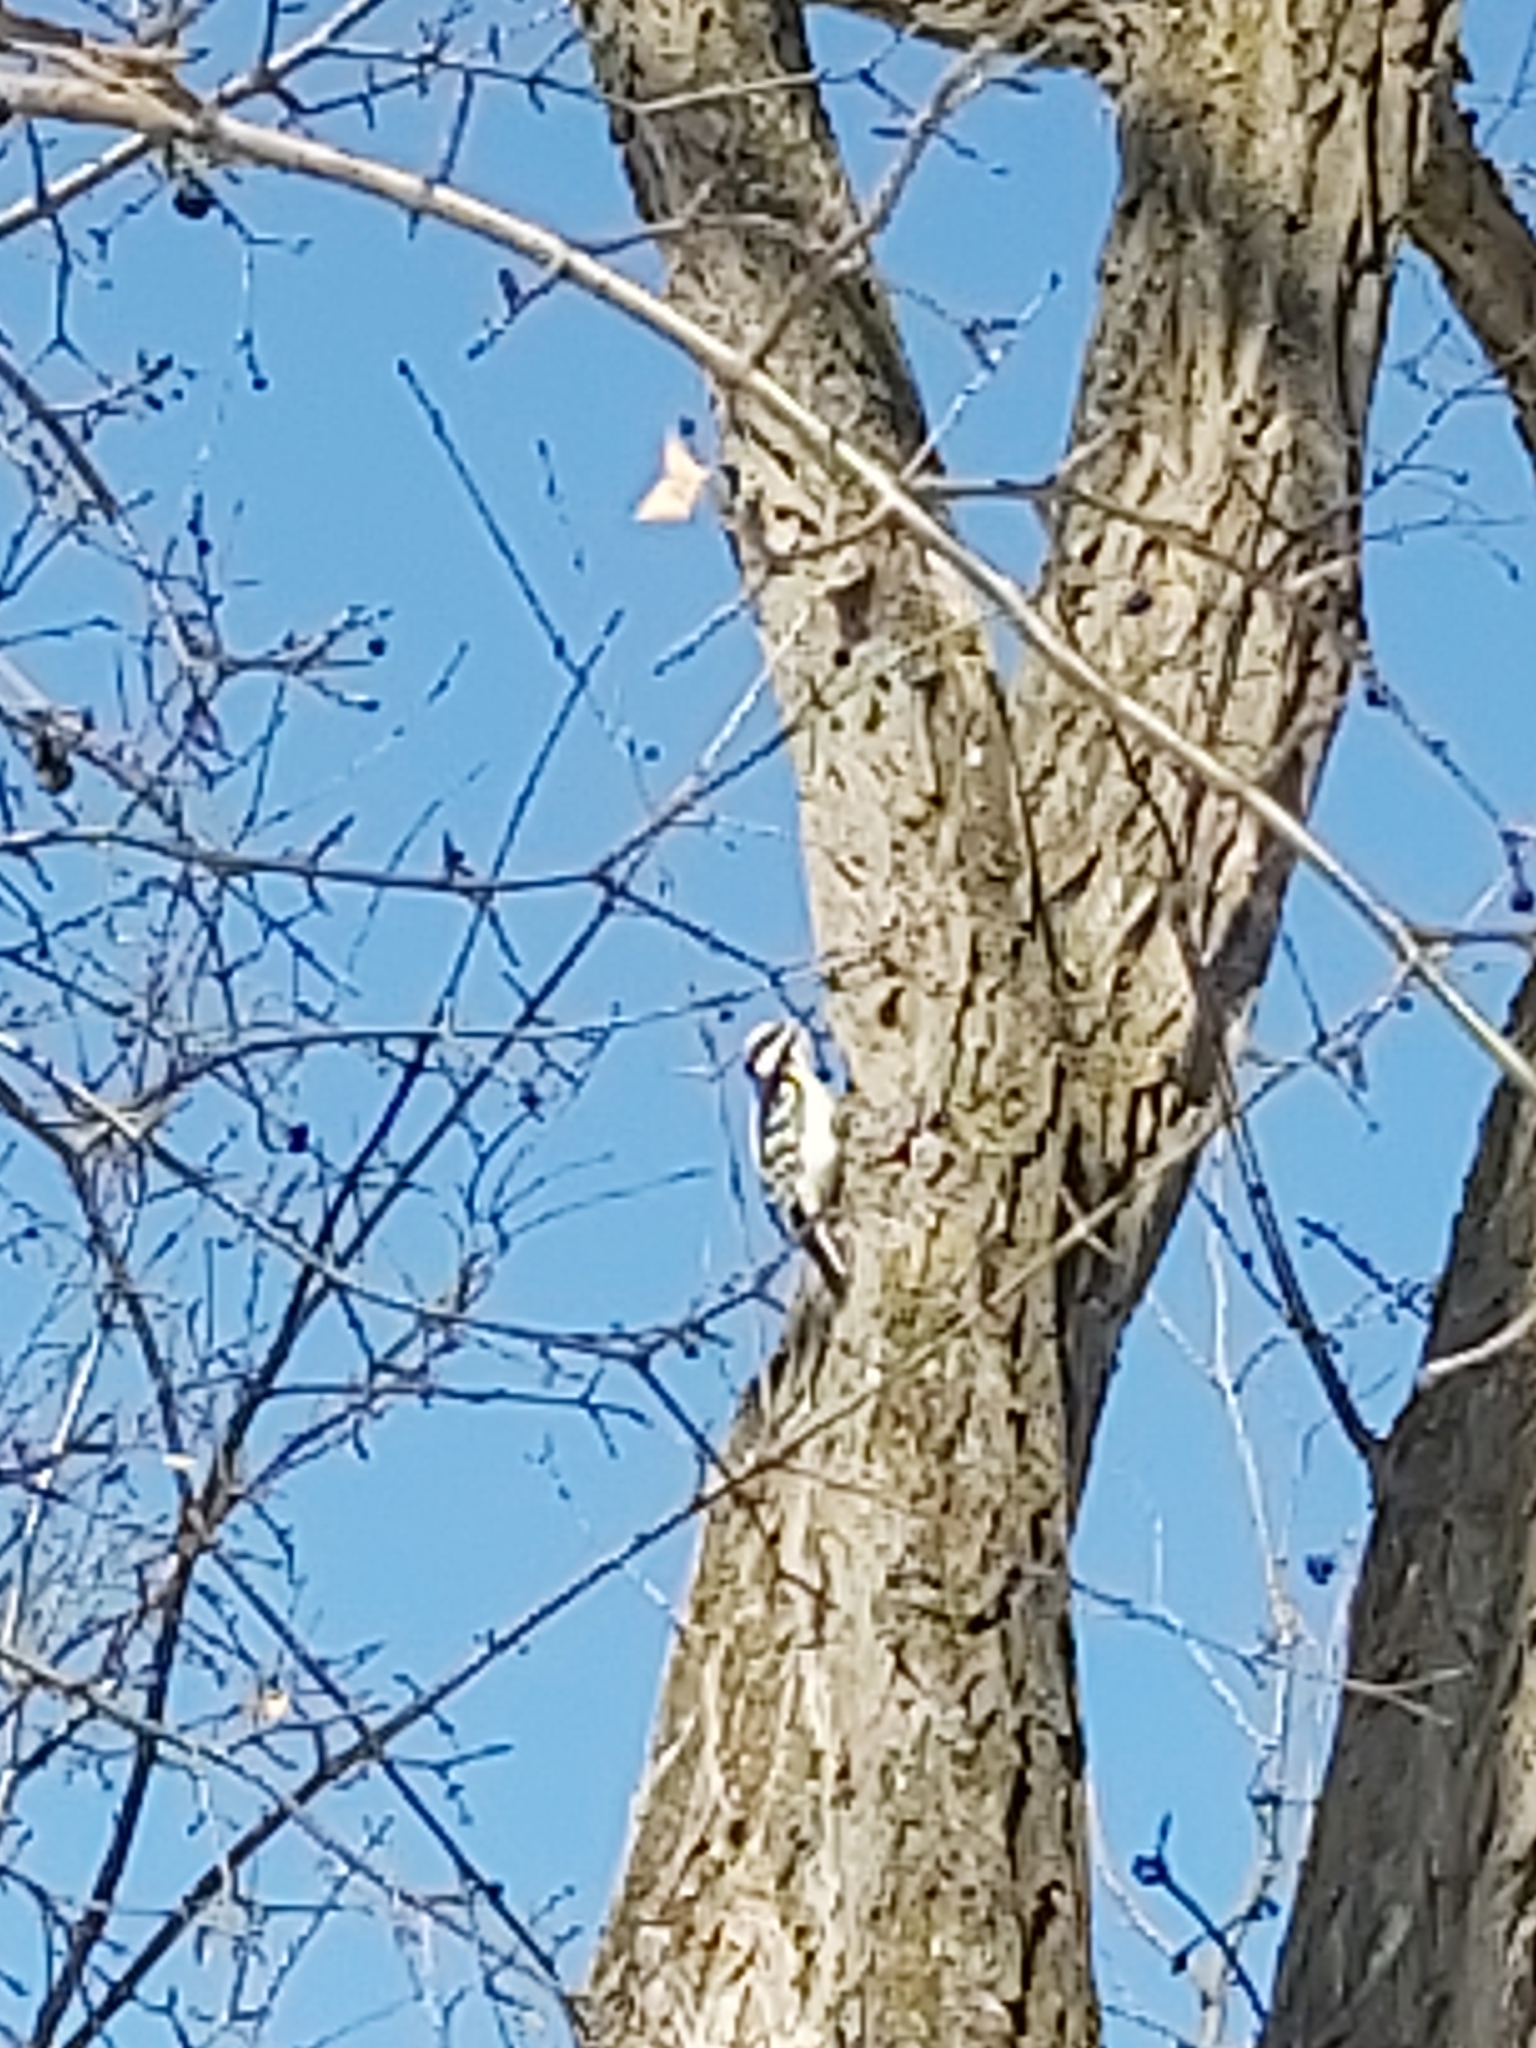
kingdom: Animalia
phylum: Chordata
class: Aves
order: Piciformes
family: Picidae
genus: Leuconotopicus
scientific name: Leuconotopicus villosus
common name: Hairy woodpecker
